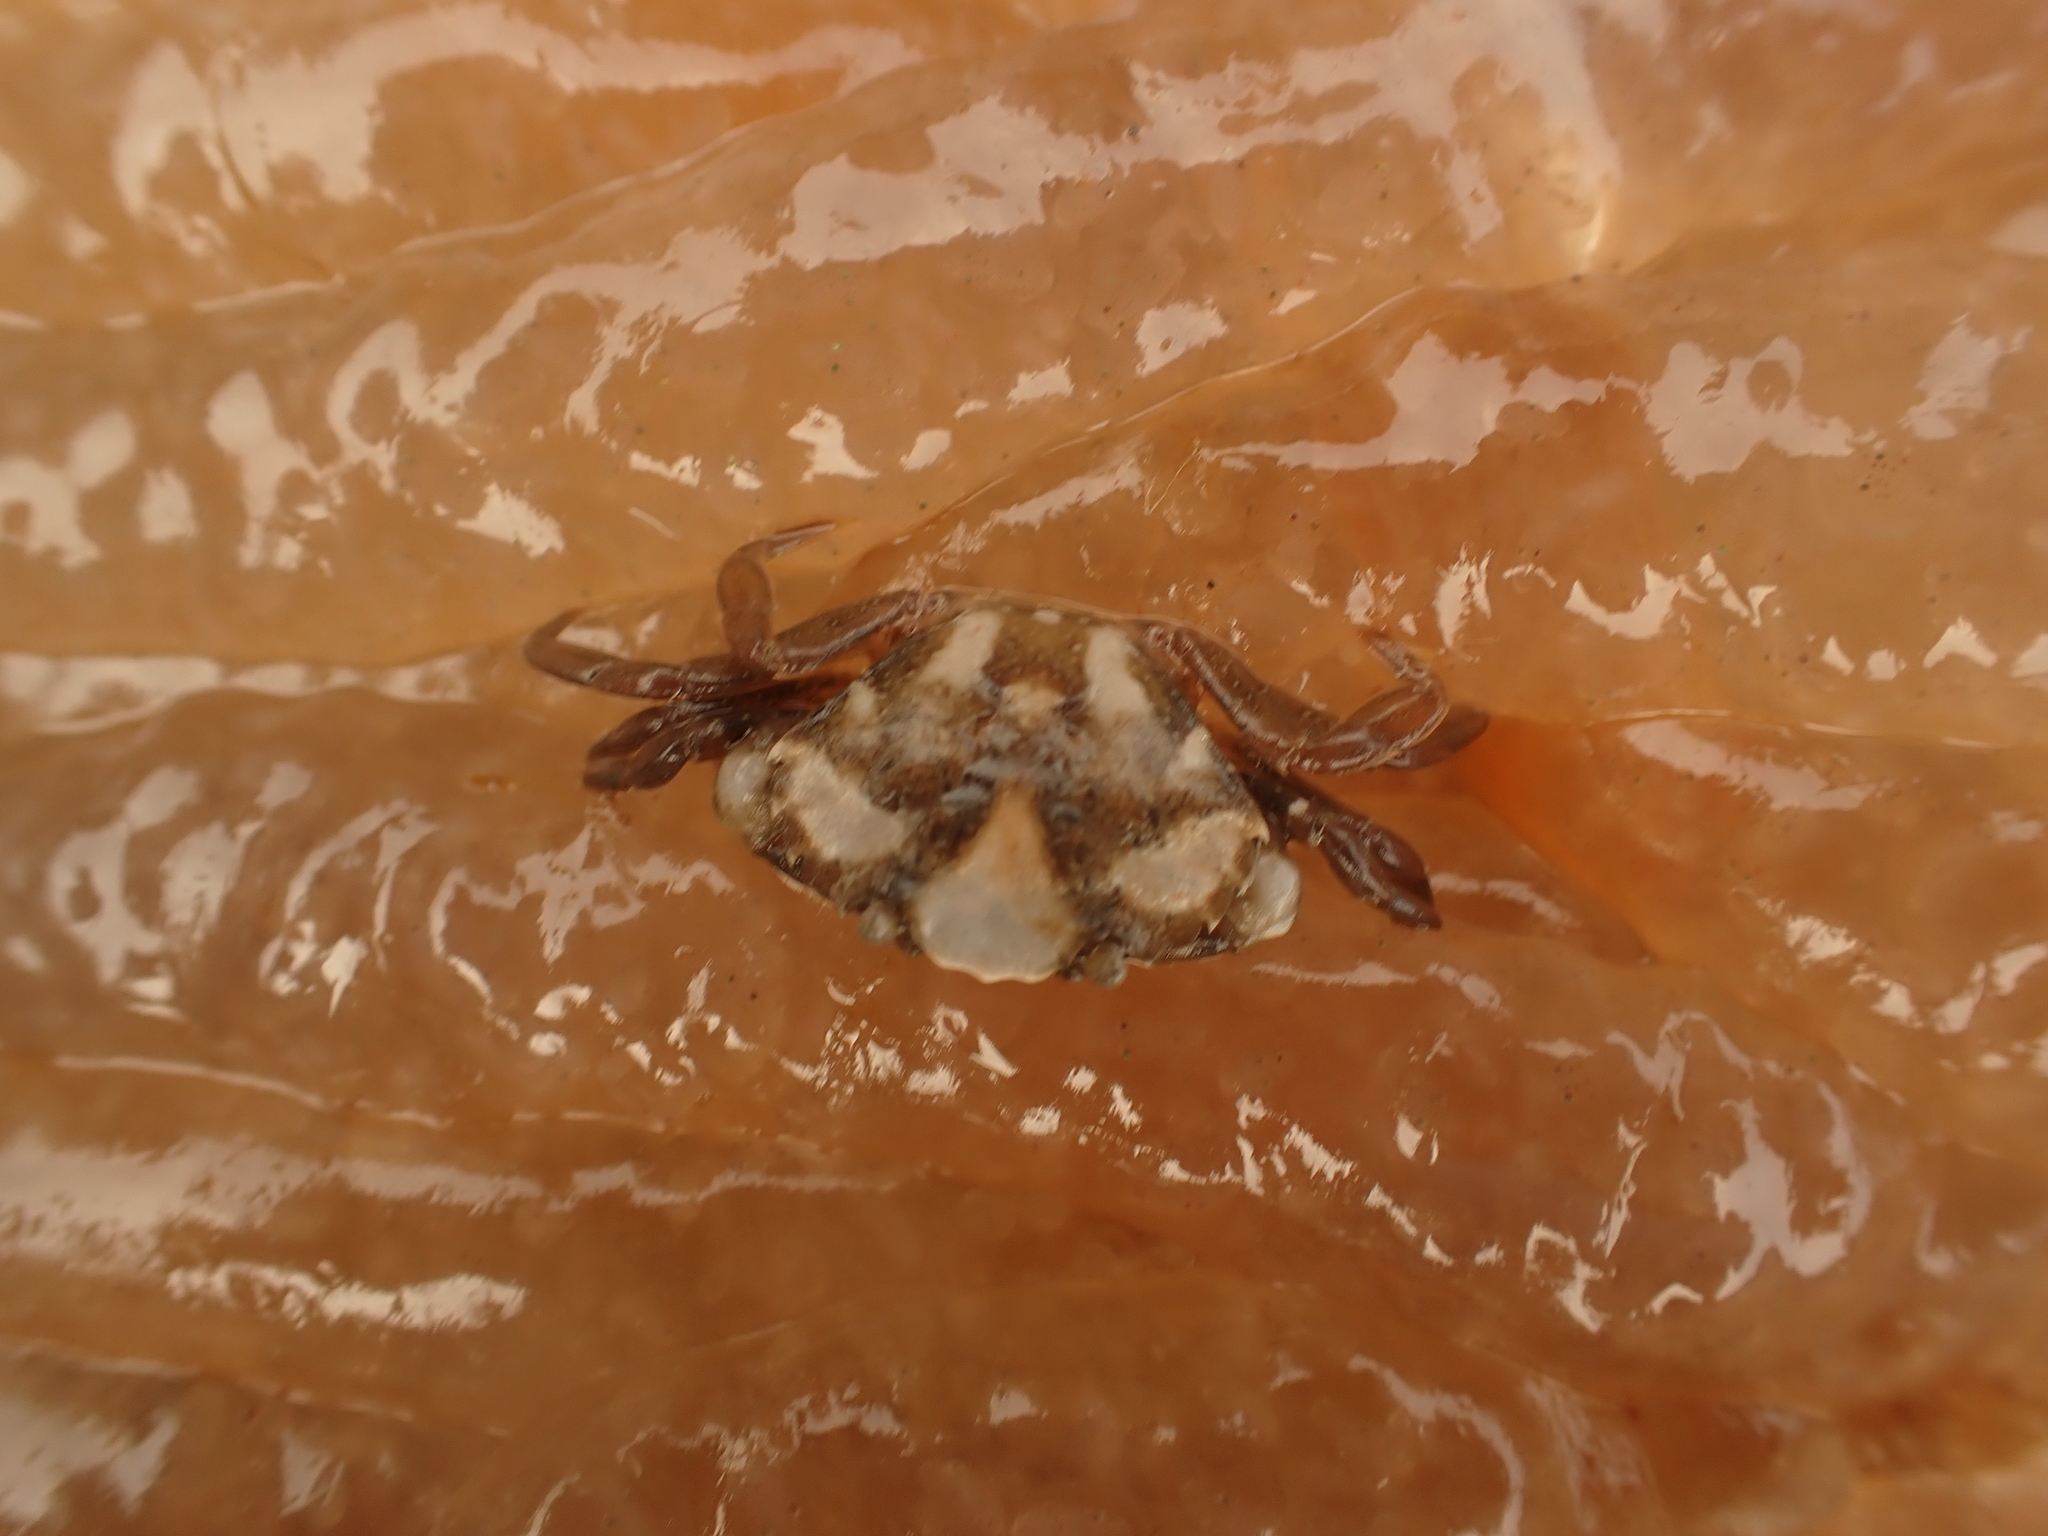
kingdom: Animalia
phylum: Arthropoda
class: Malacostraca
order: Decapoda
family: Carcinidae
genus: Carcinus
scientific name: Carcinus maenas
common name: European green crab
